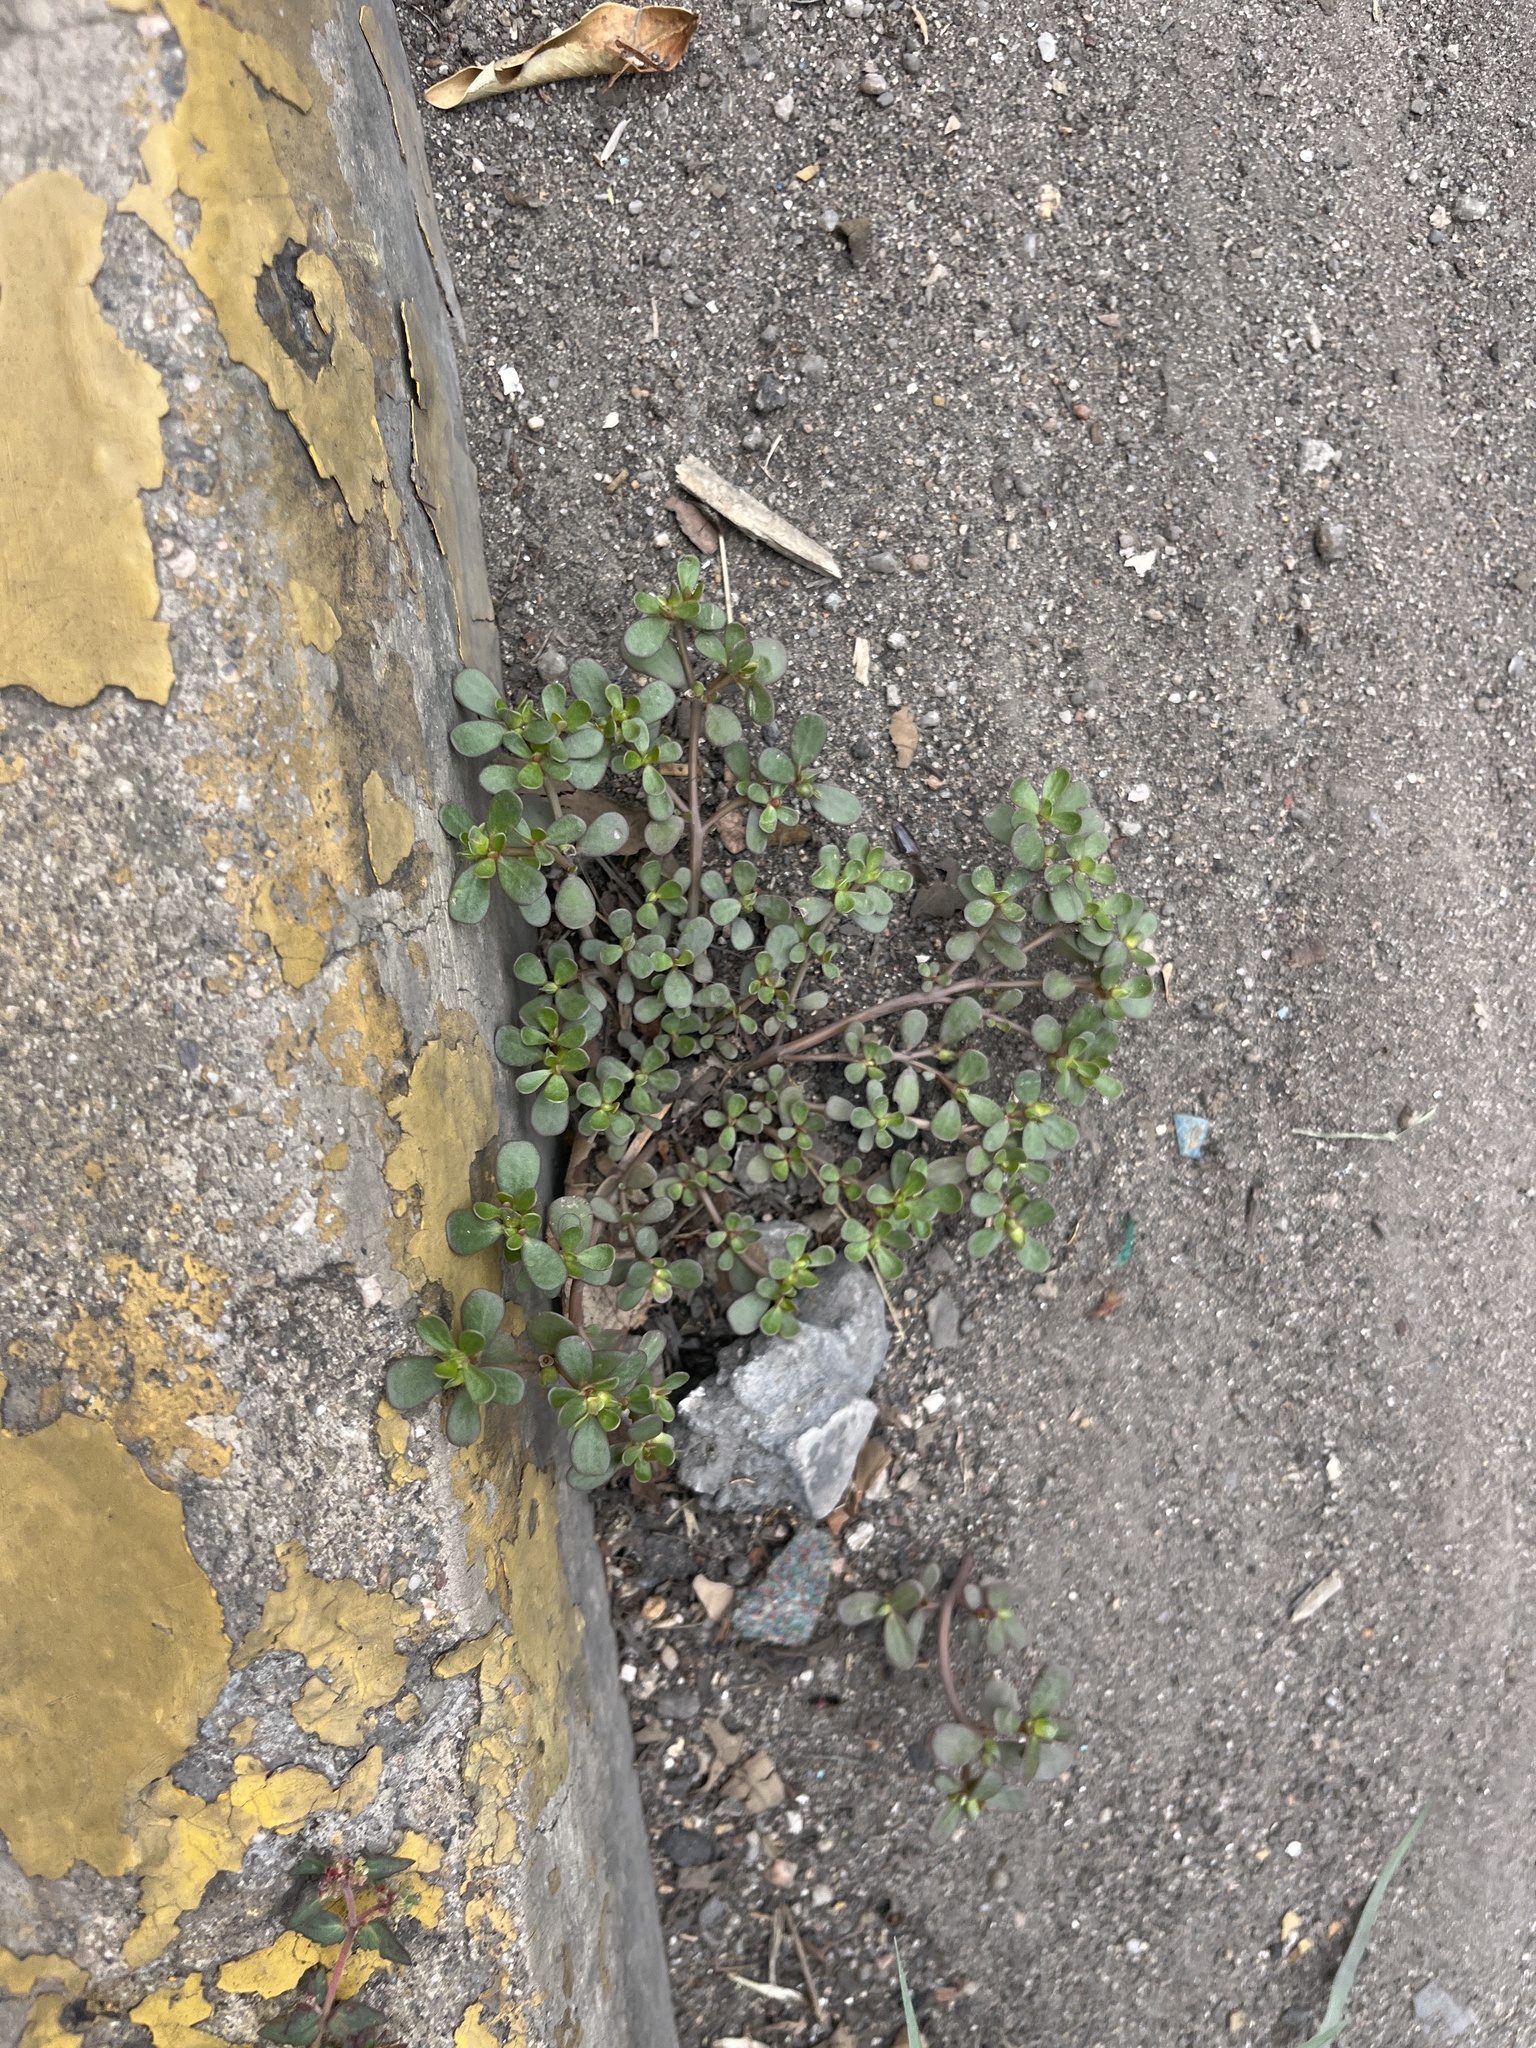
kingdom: Plantae
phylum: Tracheophyta
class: Magnoliopsida
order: Caryophyllales
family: Portulacaceae
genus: Portulaca
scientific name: Portulaca oleracea
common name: Common purslane
